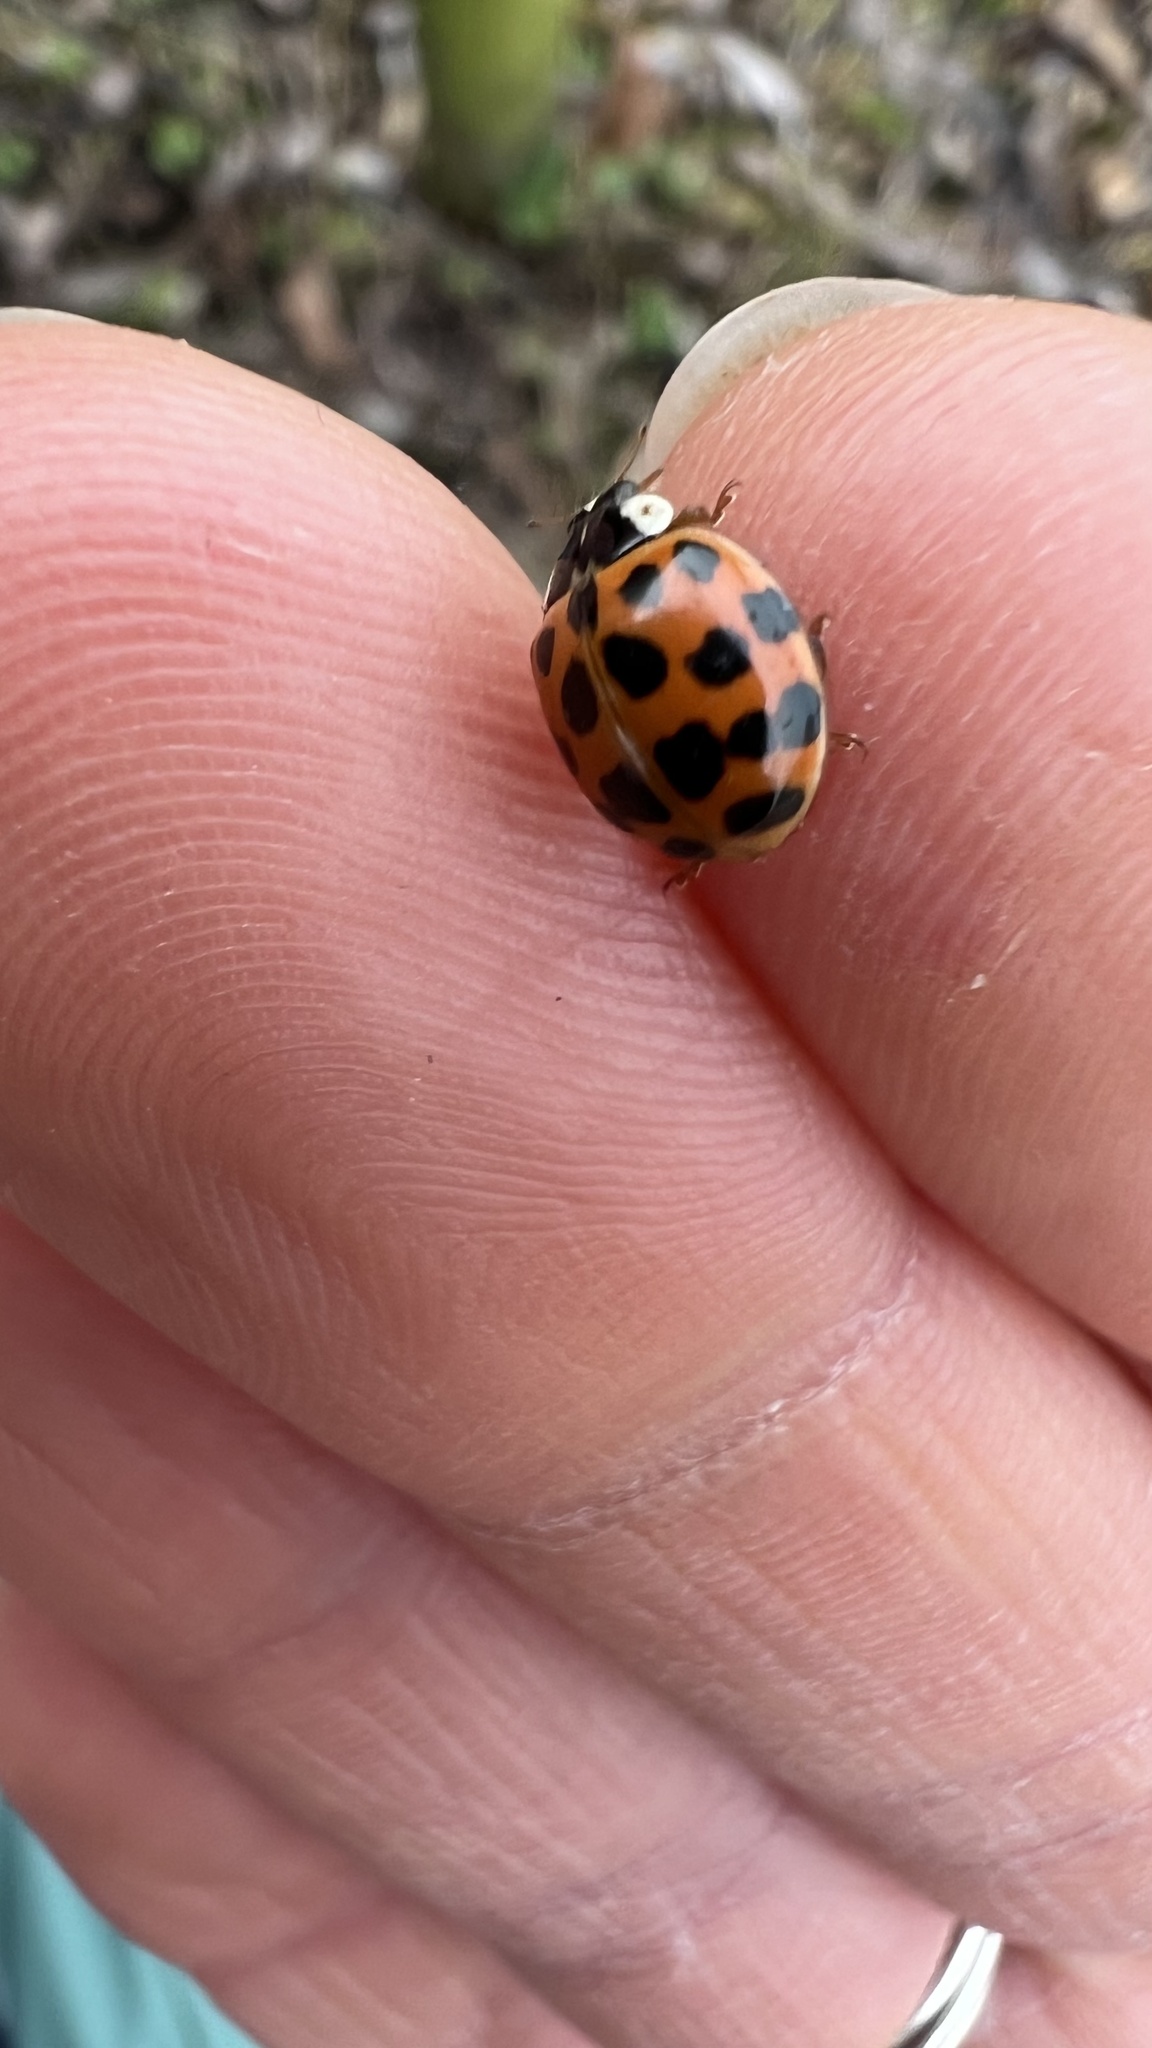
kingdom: Animalia
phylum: Arthropoda
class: Insecta
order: Coleoptera
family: Coccinellidae
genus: Harmonia
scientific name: Harmonia axyridis
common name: Harlequin ladybird
